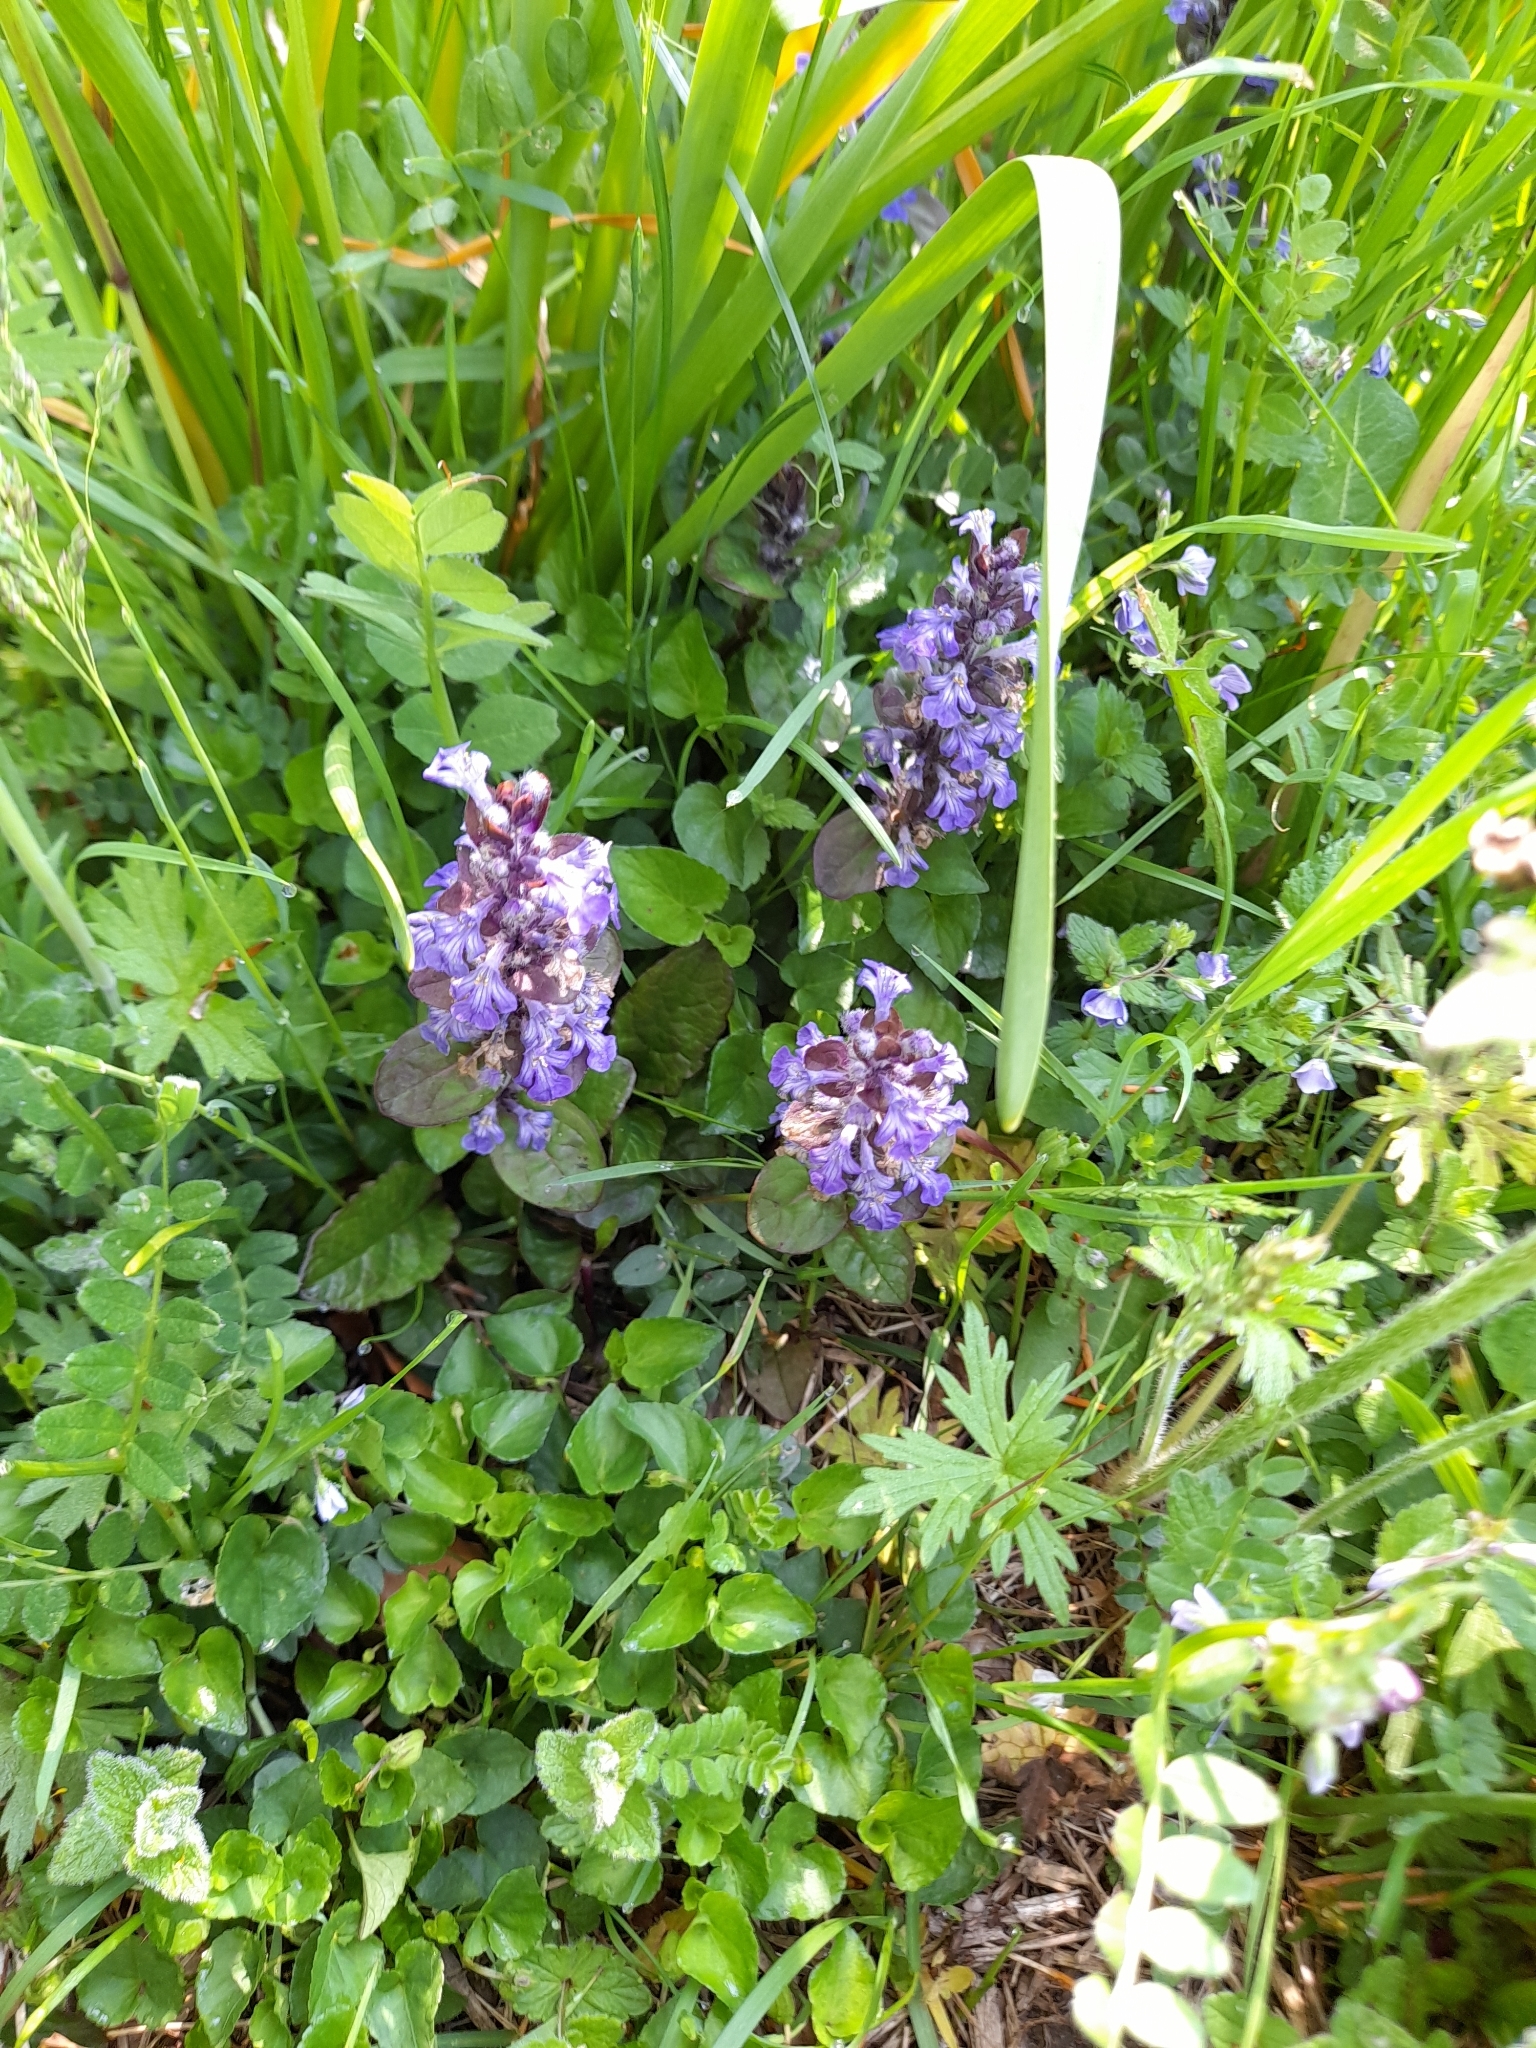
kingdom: Plantae
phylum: Tracheophyta
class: Magnoliopsida
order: Lamiales
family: Lamiaceae
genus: Ajuga
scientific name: Ajuga reptans
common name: Bugle
